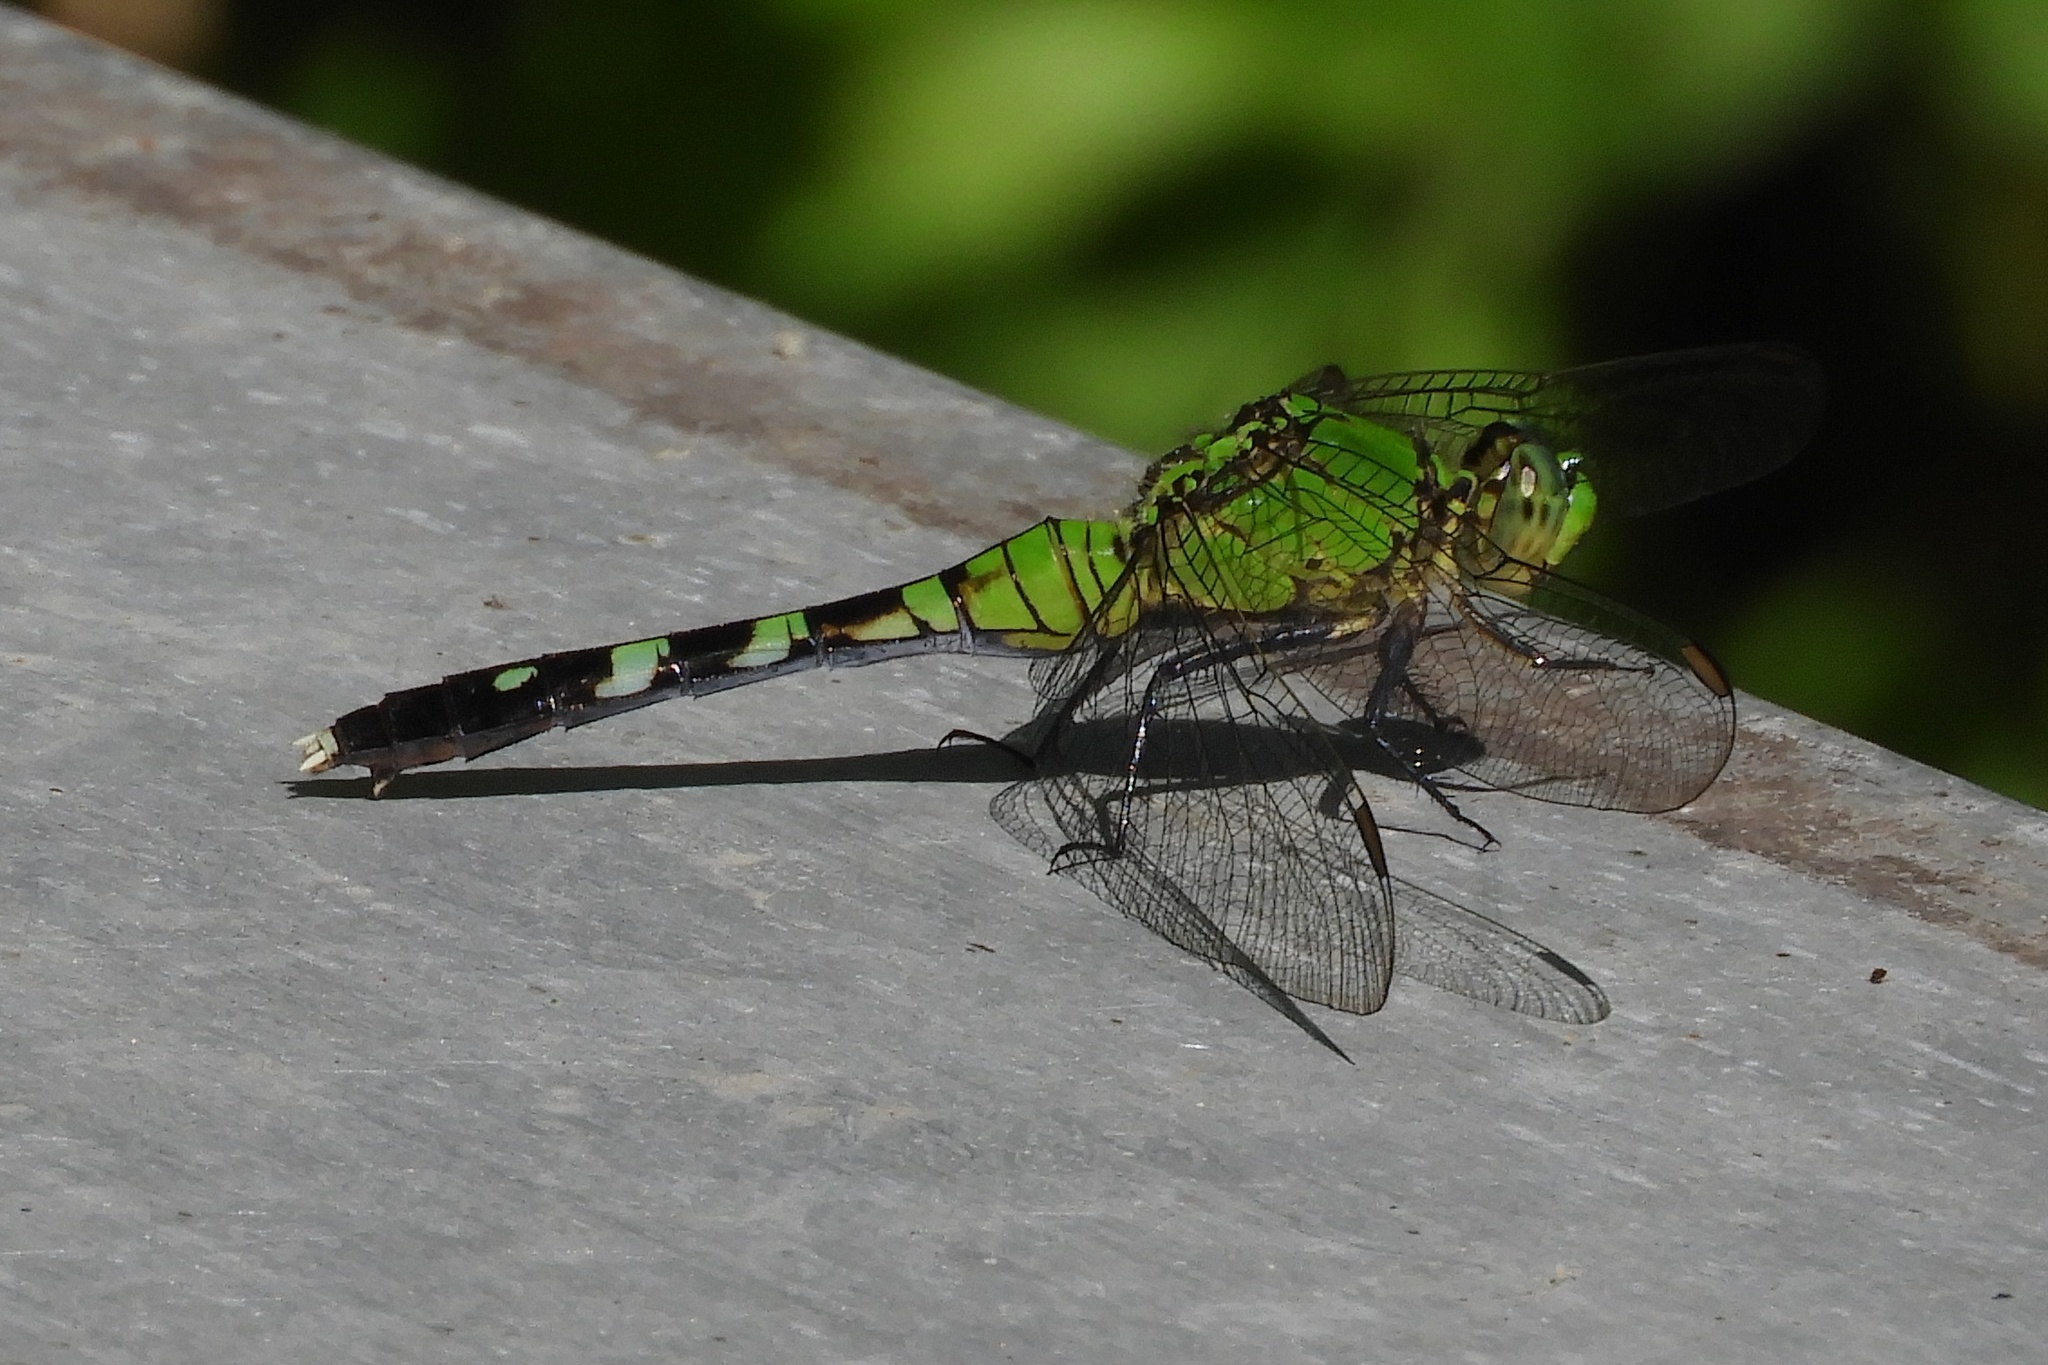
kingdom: Animalia
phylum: Arthropoda
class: Insecta
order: Odonata
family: Libellulidae
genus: Erythemis
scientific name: Erythemis simplicicollis
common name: Eastern pondhawk
